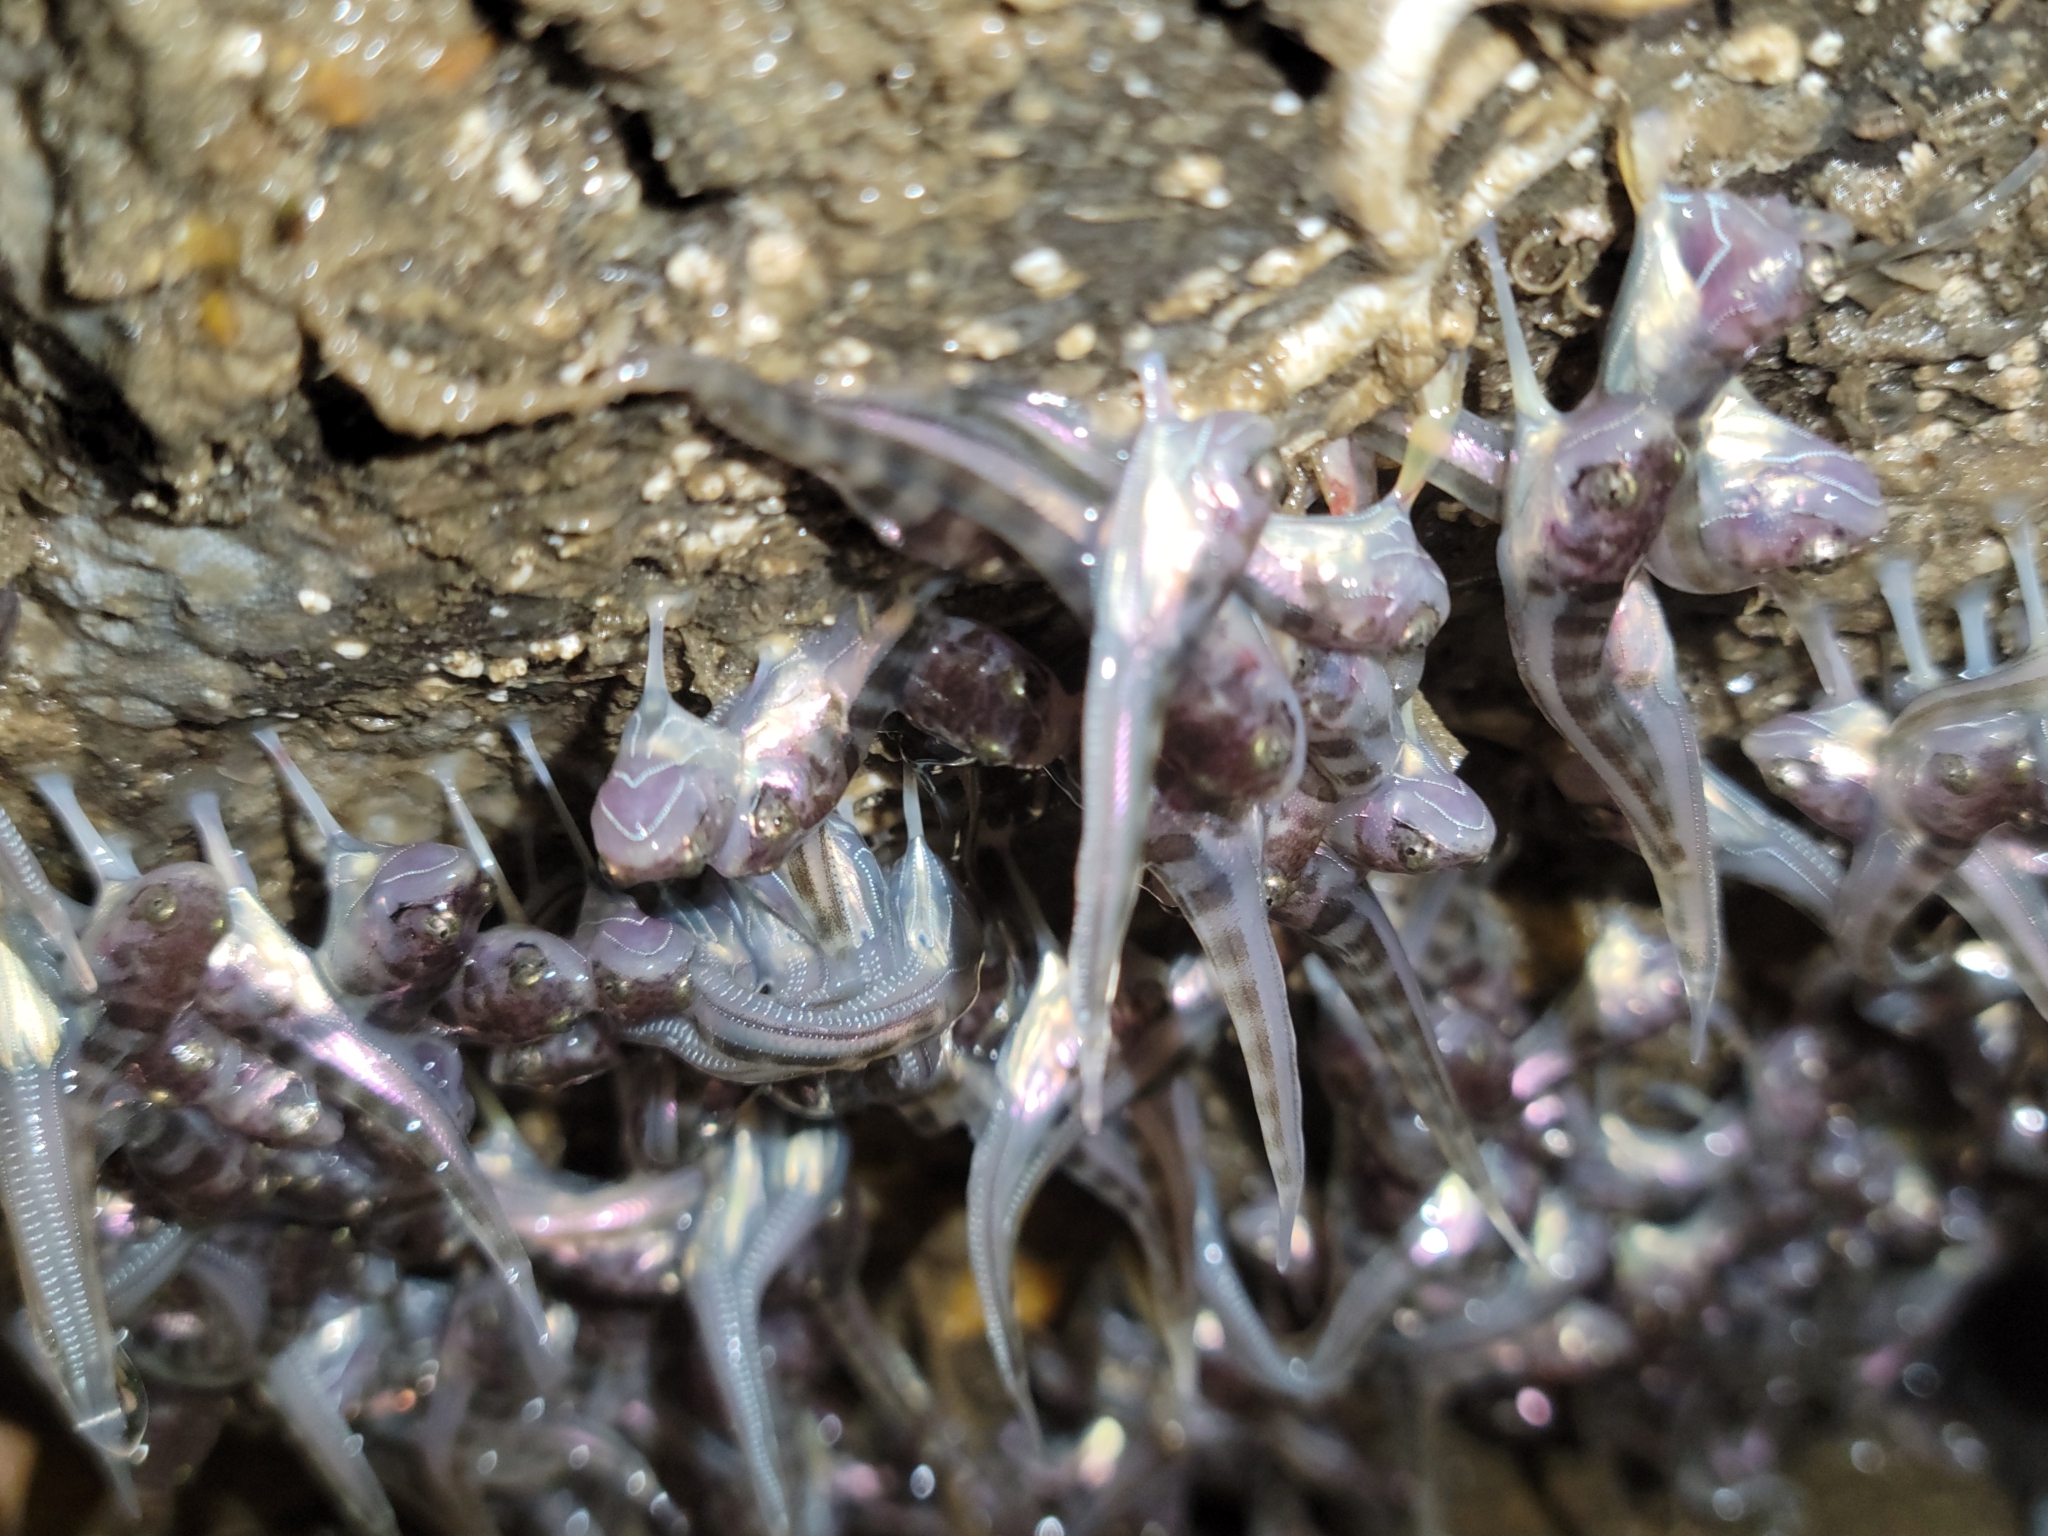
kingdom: Animalia
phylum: Chordata
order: Batrachoidiformes
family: Batrachoididae
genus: Porichthys
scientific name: Porichthys notatus
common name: Plainfin midshipman
